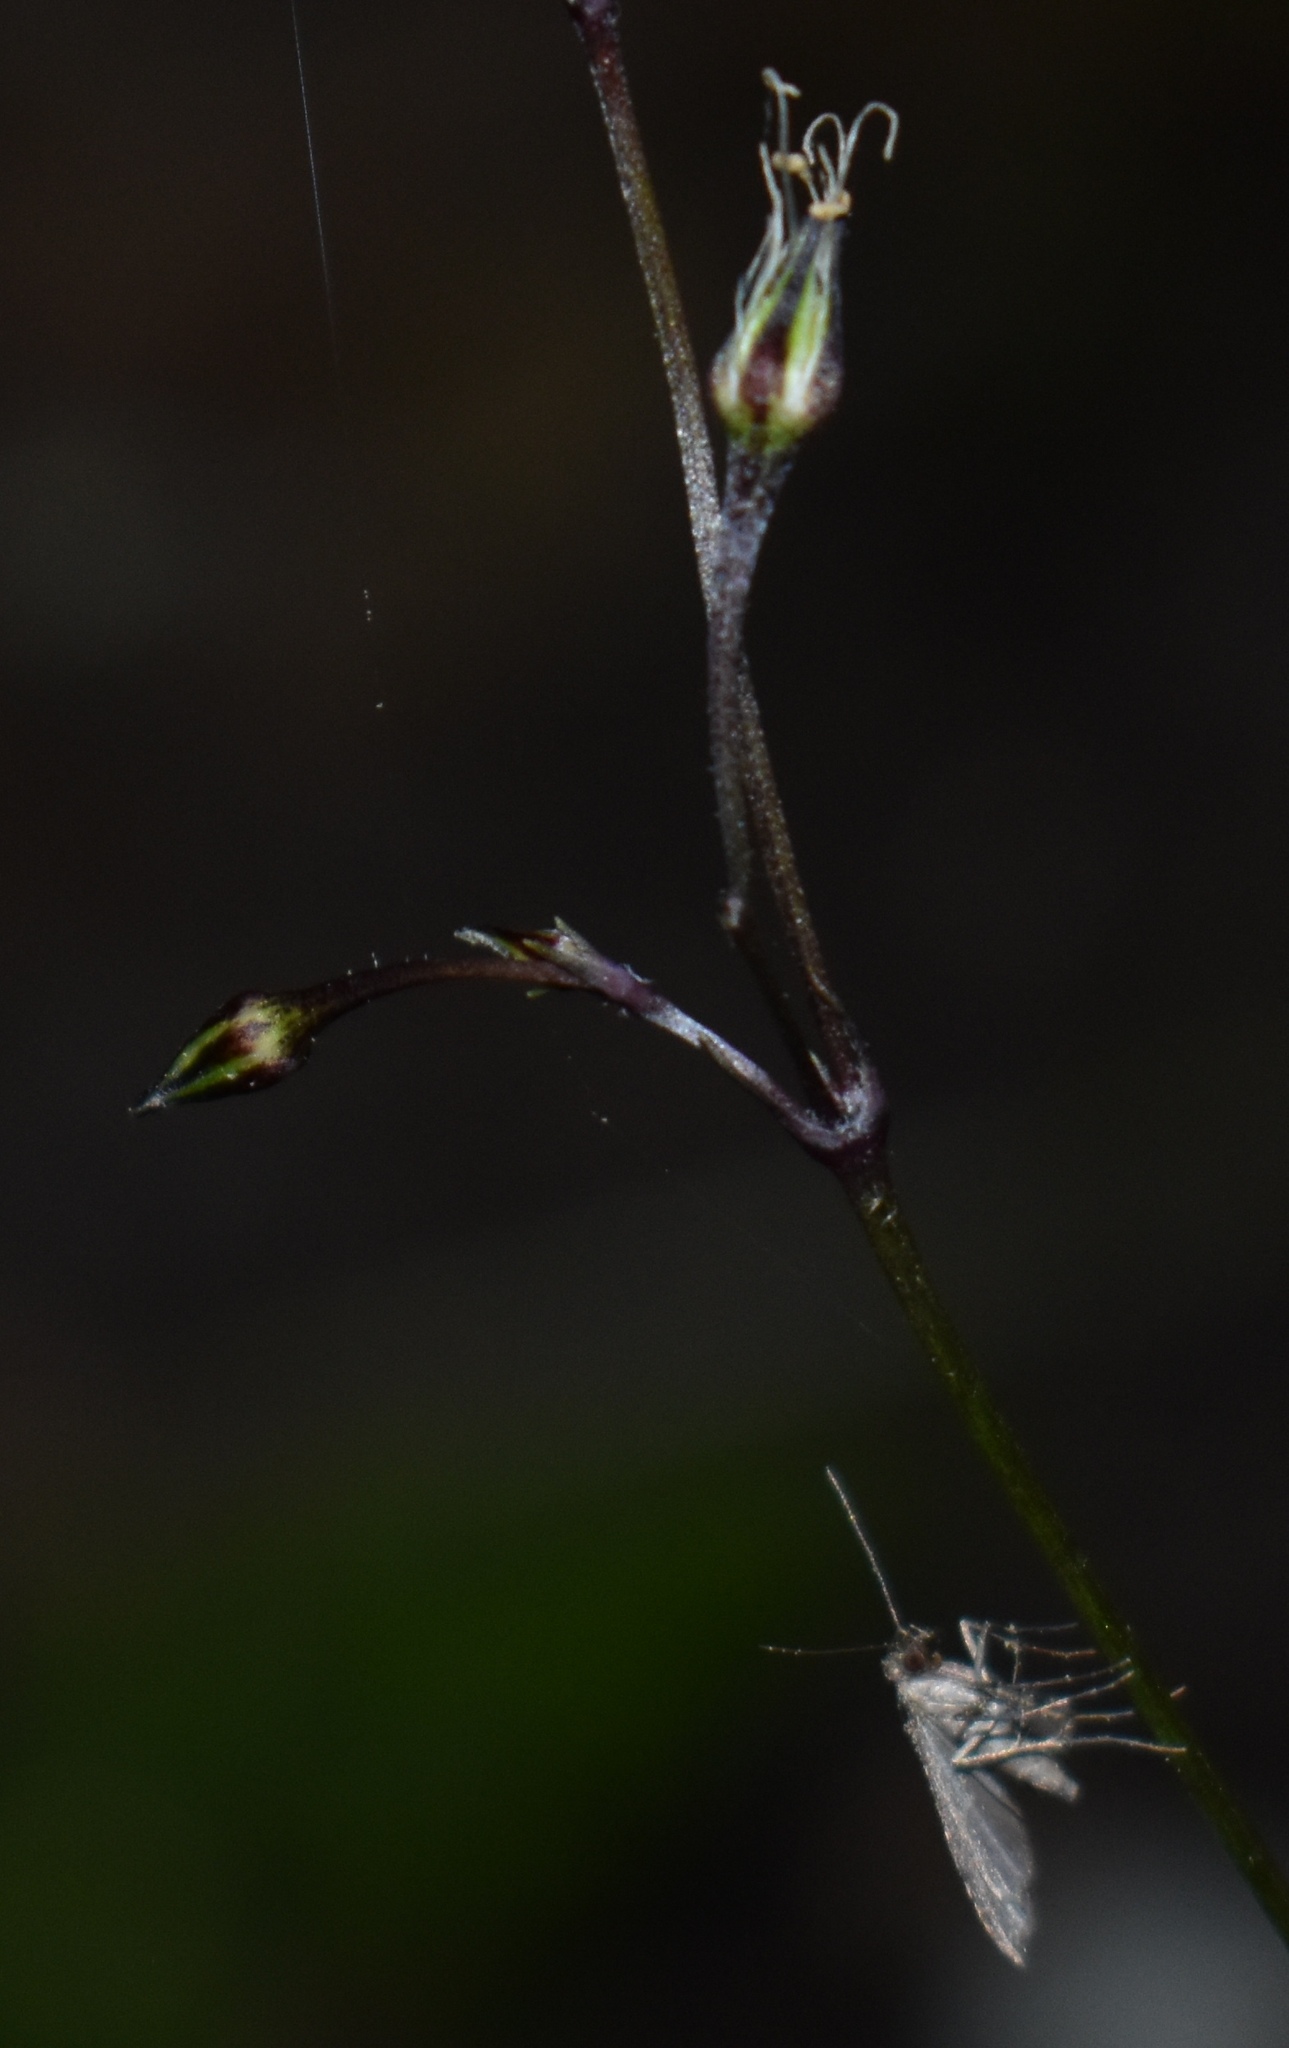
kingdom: Animalia
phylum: Arthropoda
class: Insecta
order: Lepidoptera
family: Erebidae
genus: Pseudoschrankia
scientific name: Pseudoschrankia brevipalpis
